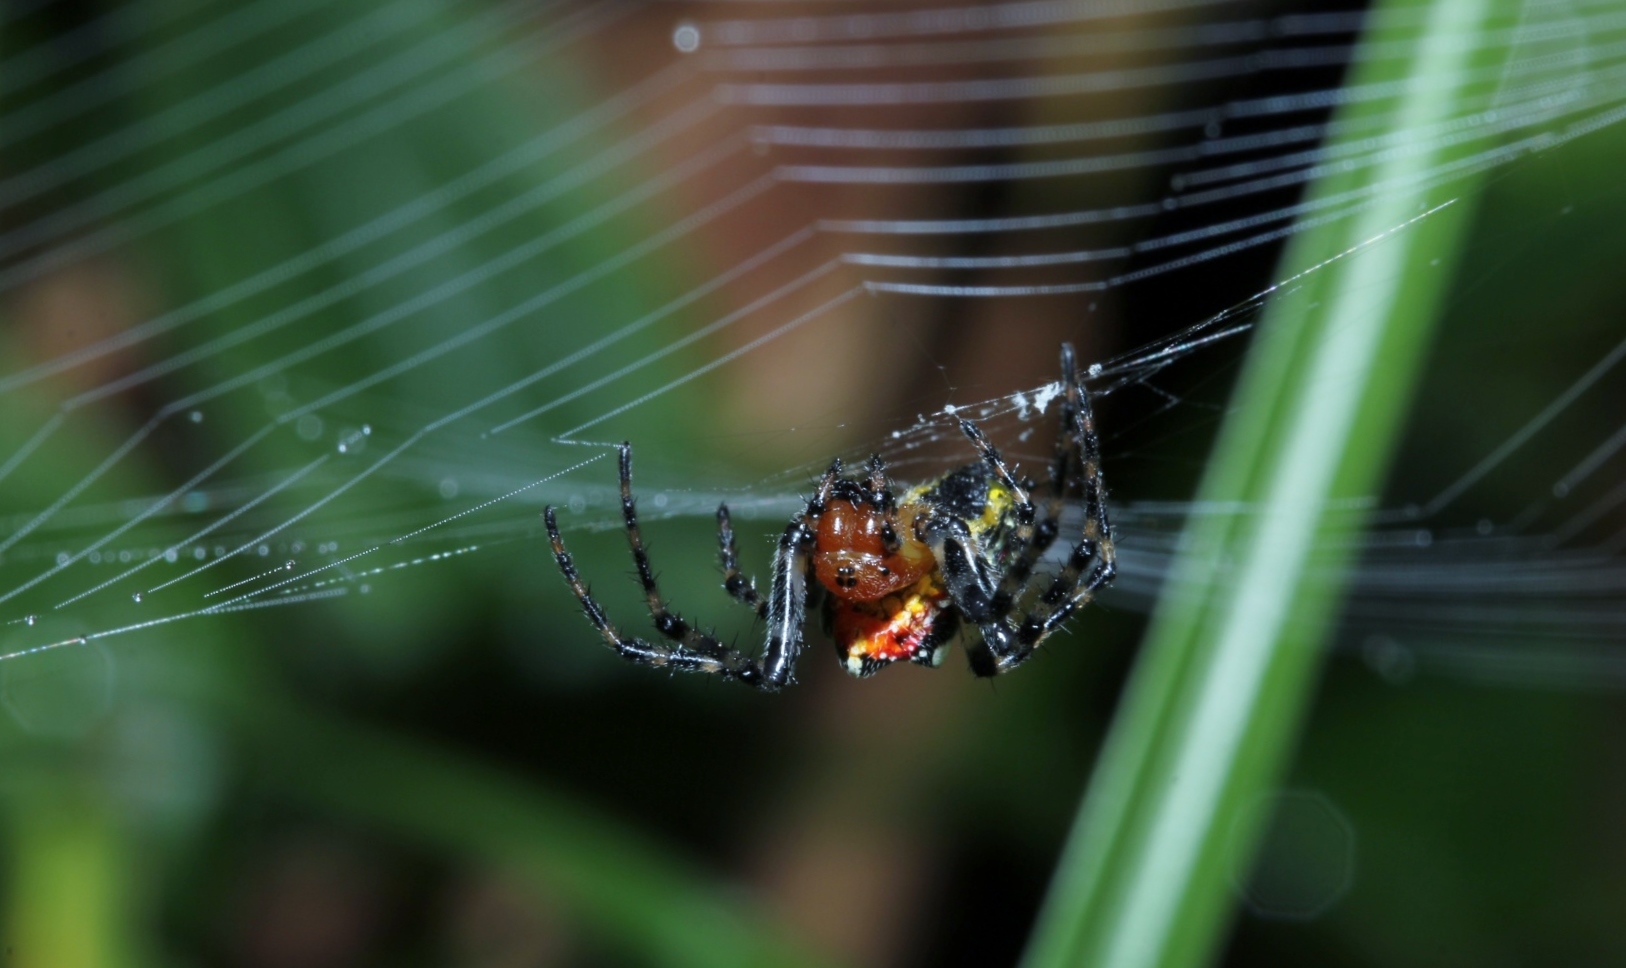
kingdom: Animalia
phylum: Arthropoda
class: Arachnida
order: Araneae
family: Araneidae
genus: Alpaida
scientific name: Alpaida grayi
